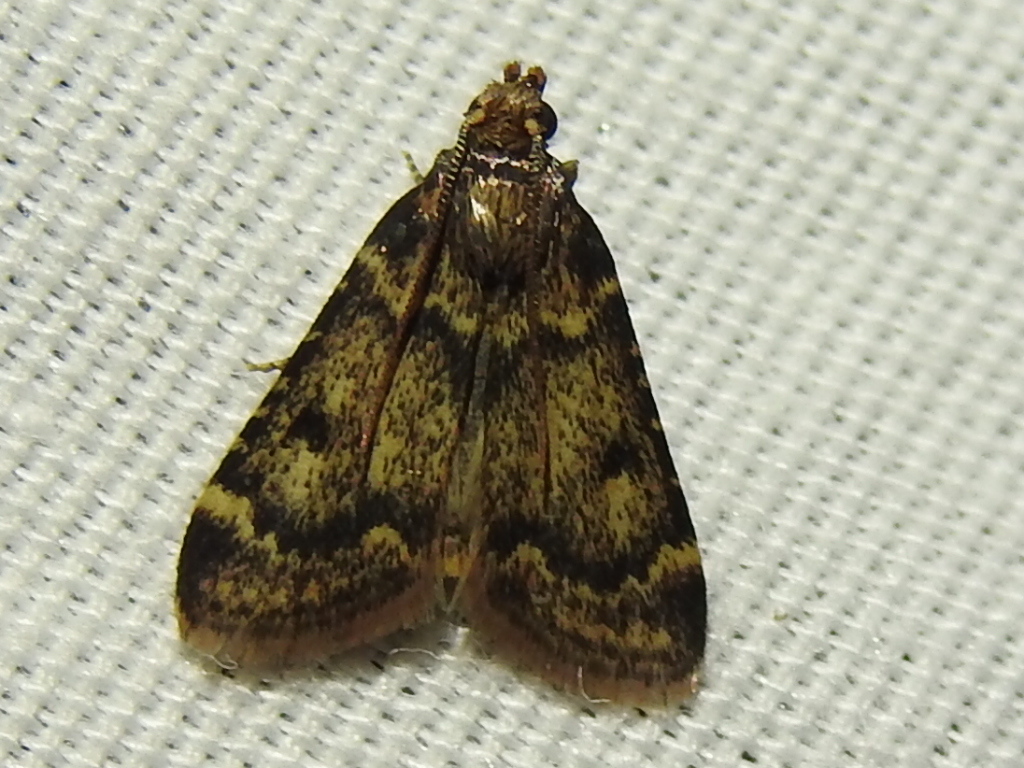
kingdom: Animalia
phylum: Arthropoda
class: Insecta
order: Lepidoptera
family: Pyralidae
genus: Aglossa
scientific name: Aglossa disciferalis
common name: Pink-masked pyralid moth
